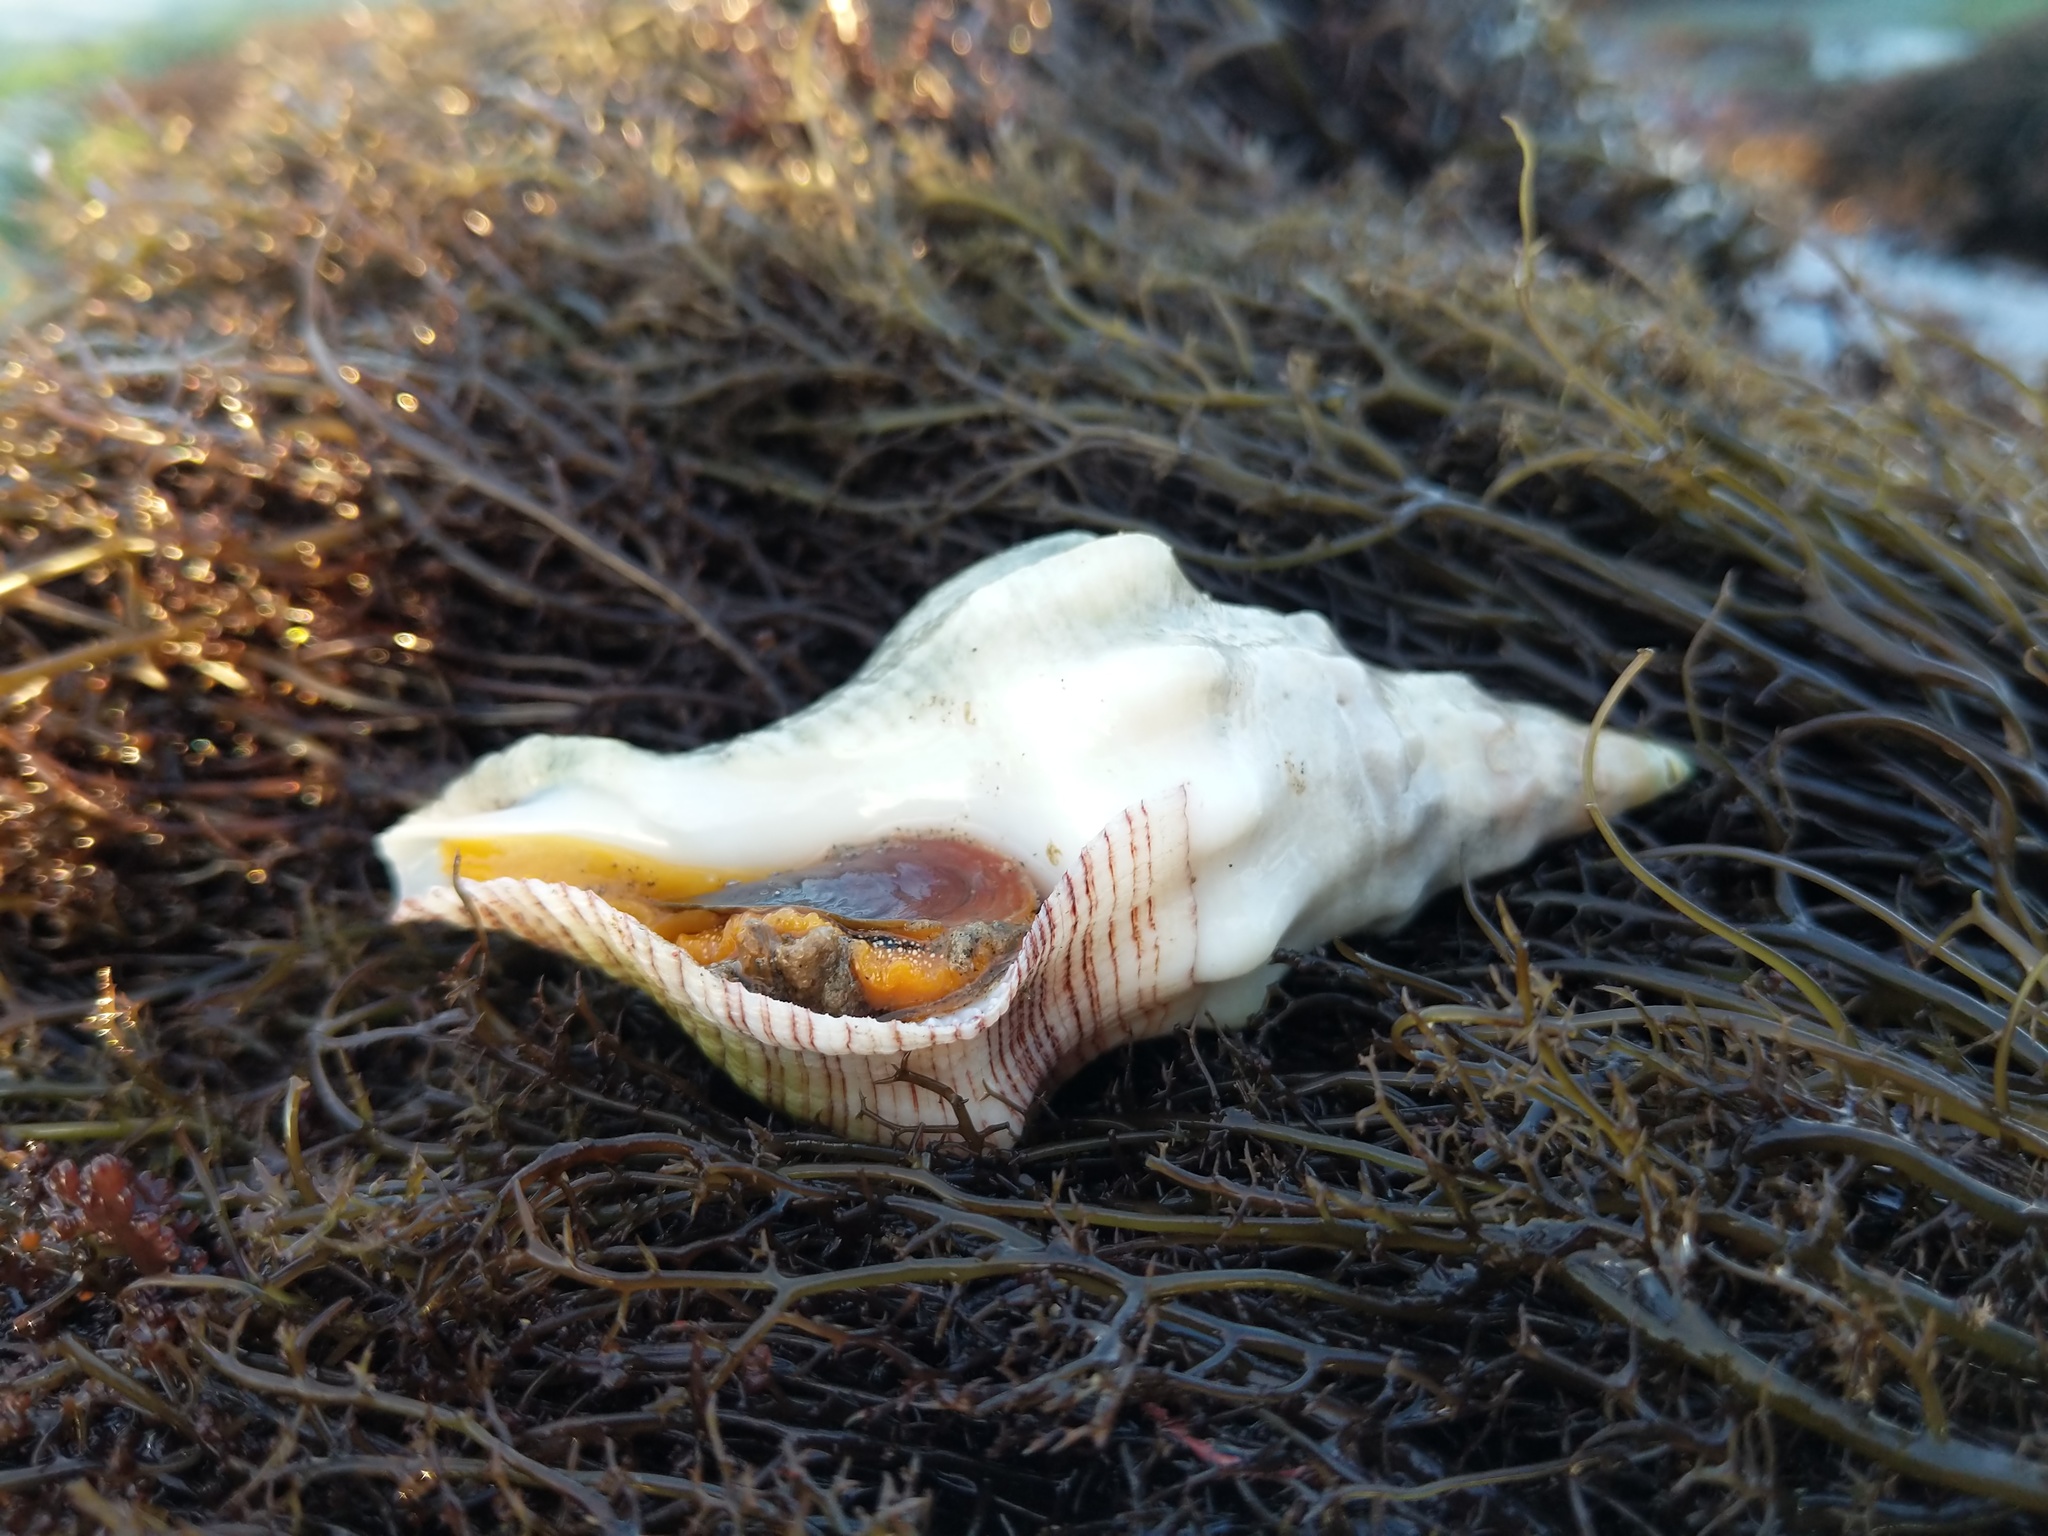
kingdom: Animalia
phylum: Mollusca
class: Gastropoda
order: Neogastropoda
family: Austrosiphonidae
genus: Kelletia
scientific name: Kelletia kelletii
